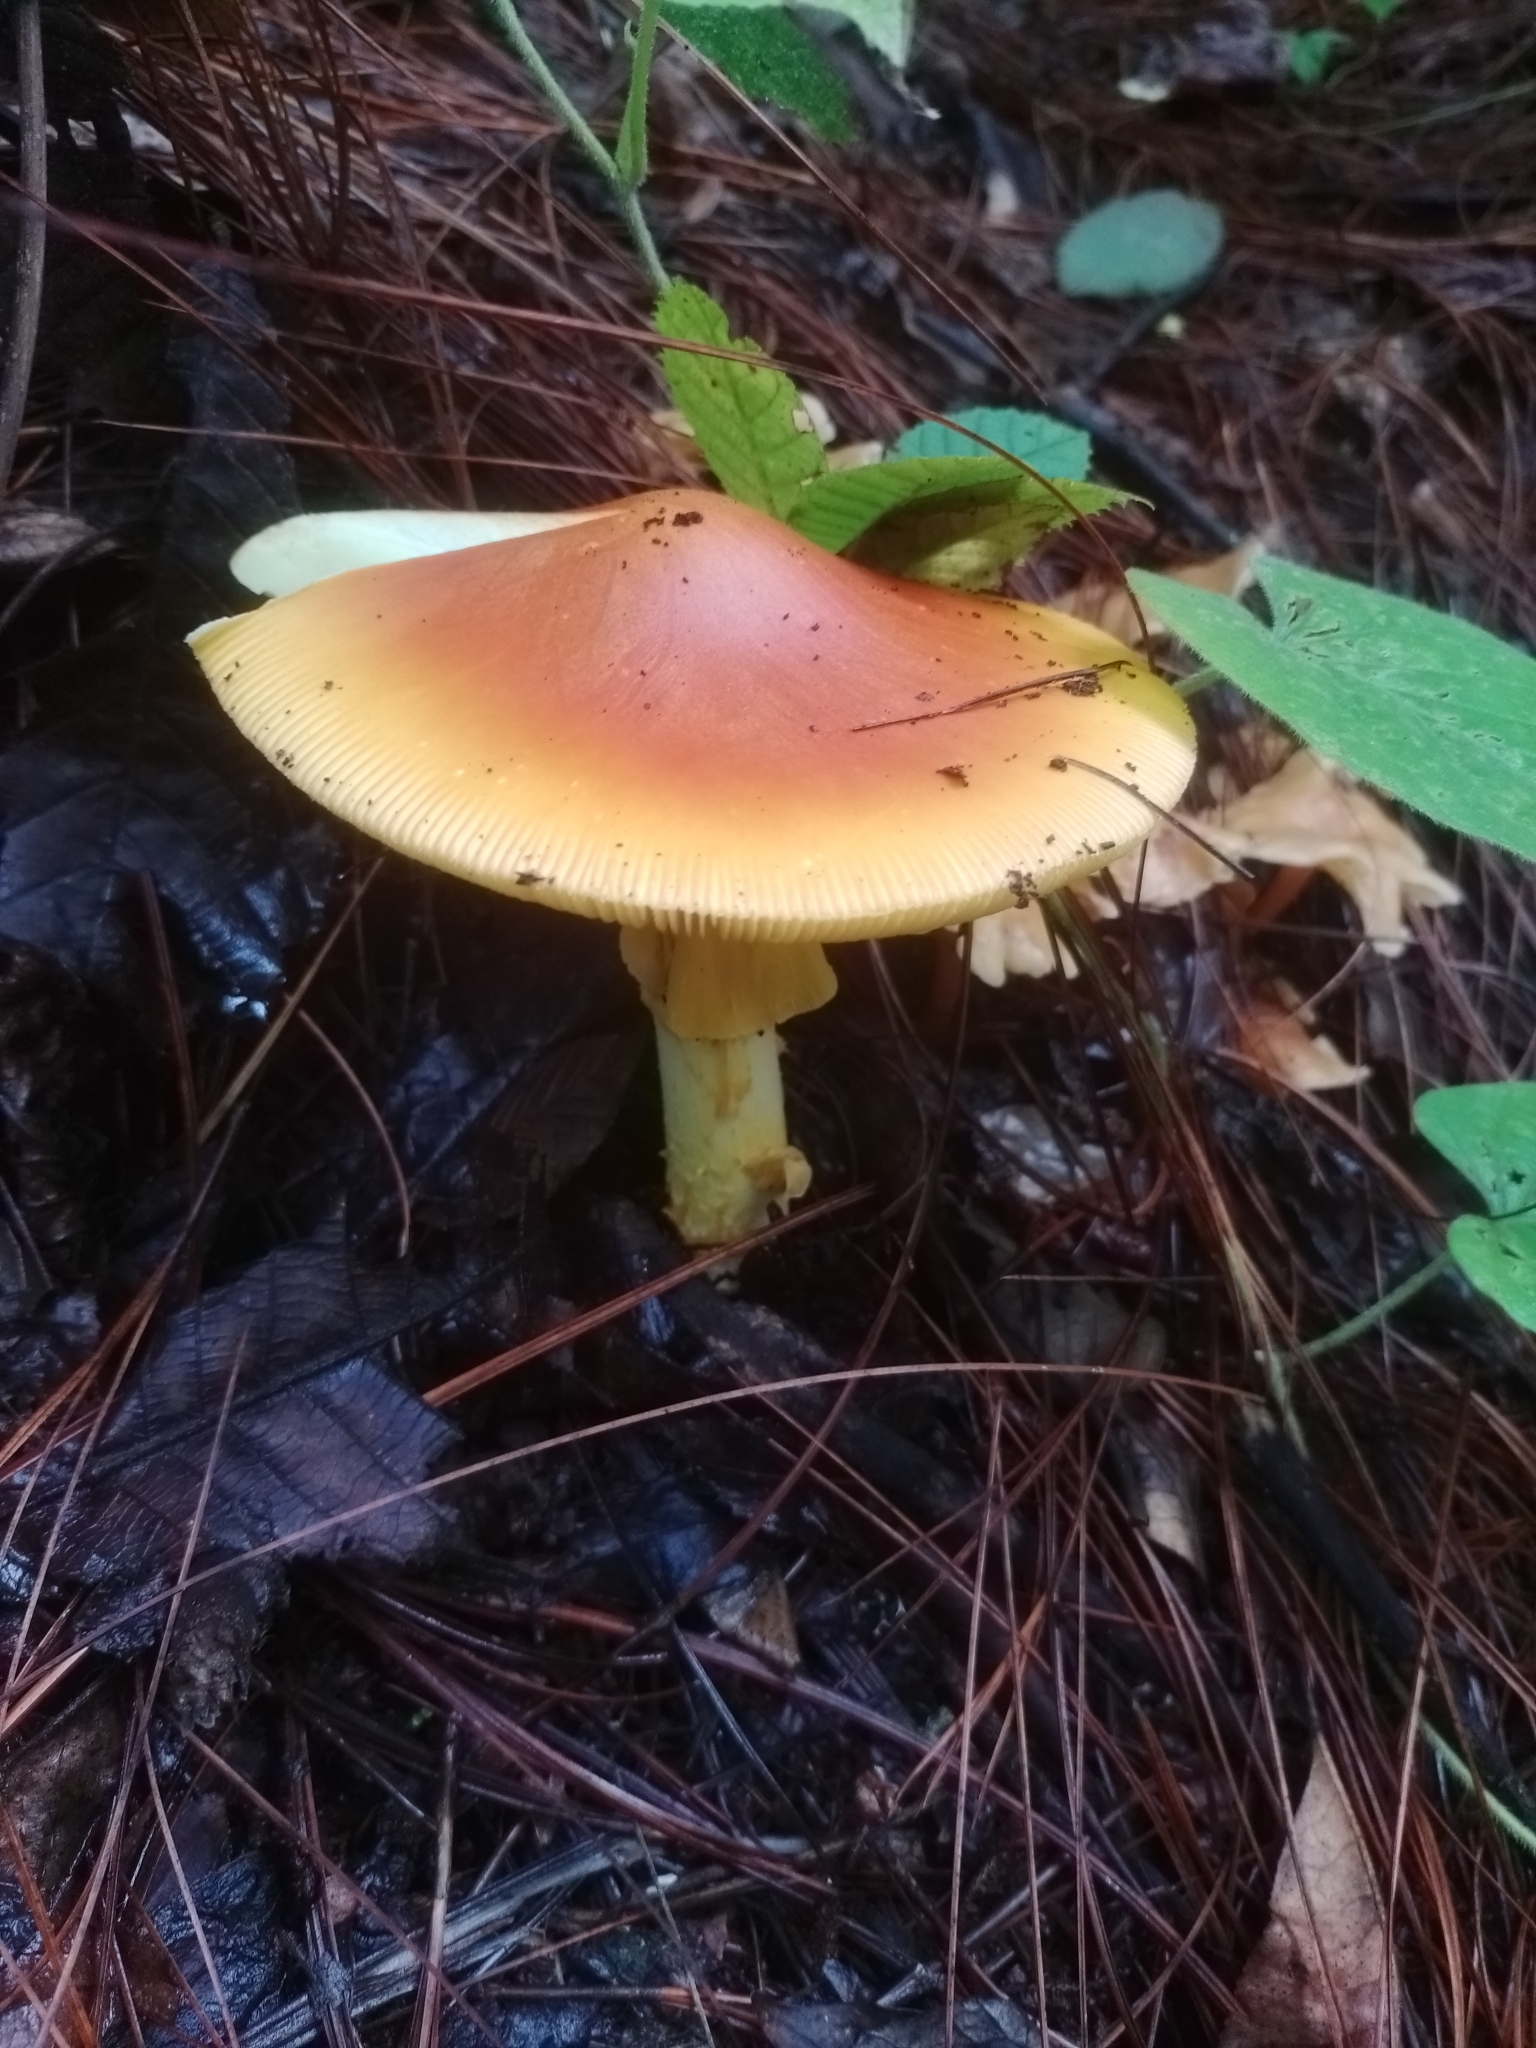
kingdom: Fungi
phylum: Basidiomycota
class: Agaricomycetes
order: Agaricales
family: Amanitaceae
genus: Amanita
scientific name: Amanita basii
